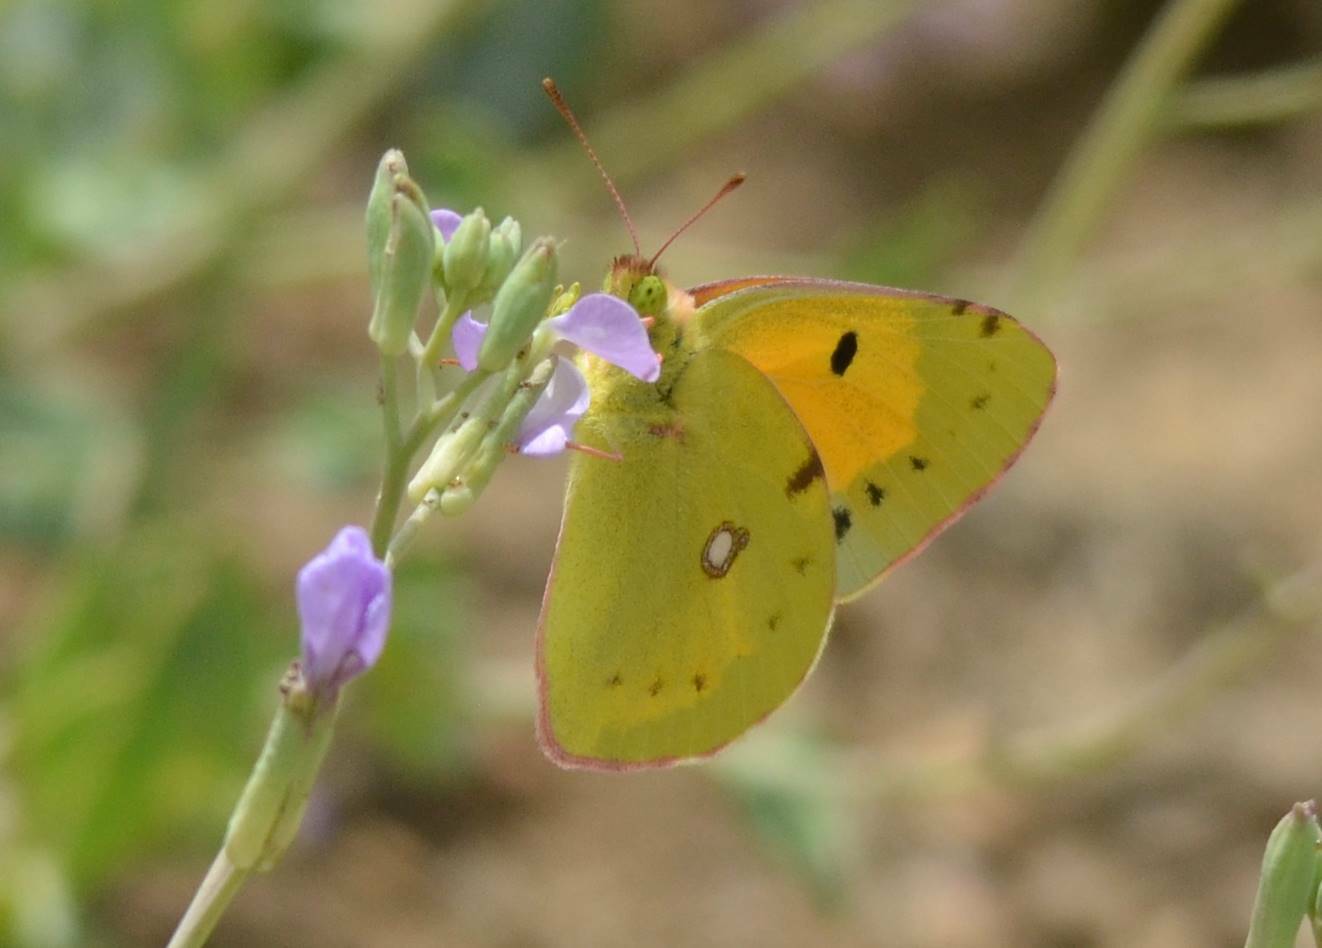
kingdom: Animalia
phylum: Arthropoda
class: Insecta
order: Lepidoptera
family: Pieridae
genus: Colias
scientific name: Colias croceus
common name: Clouded yellow
